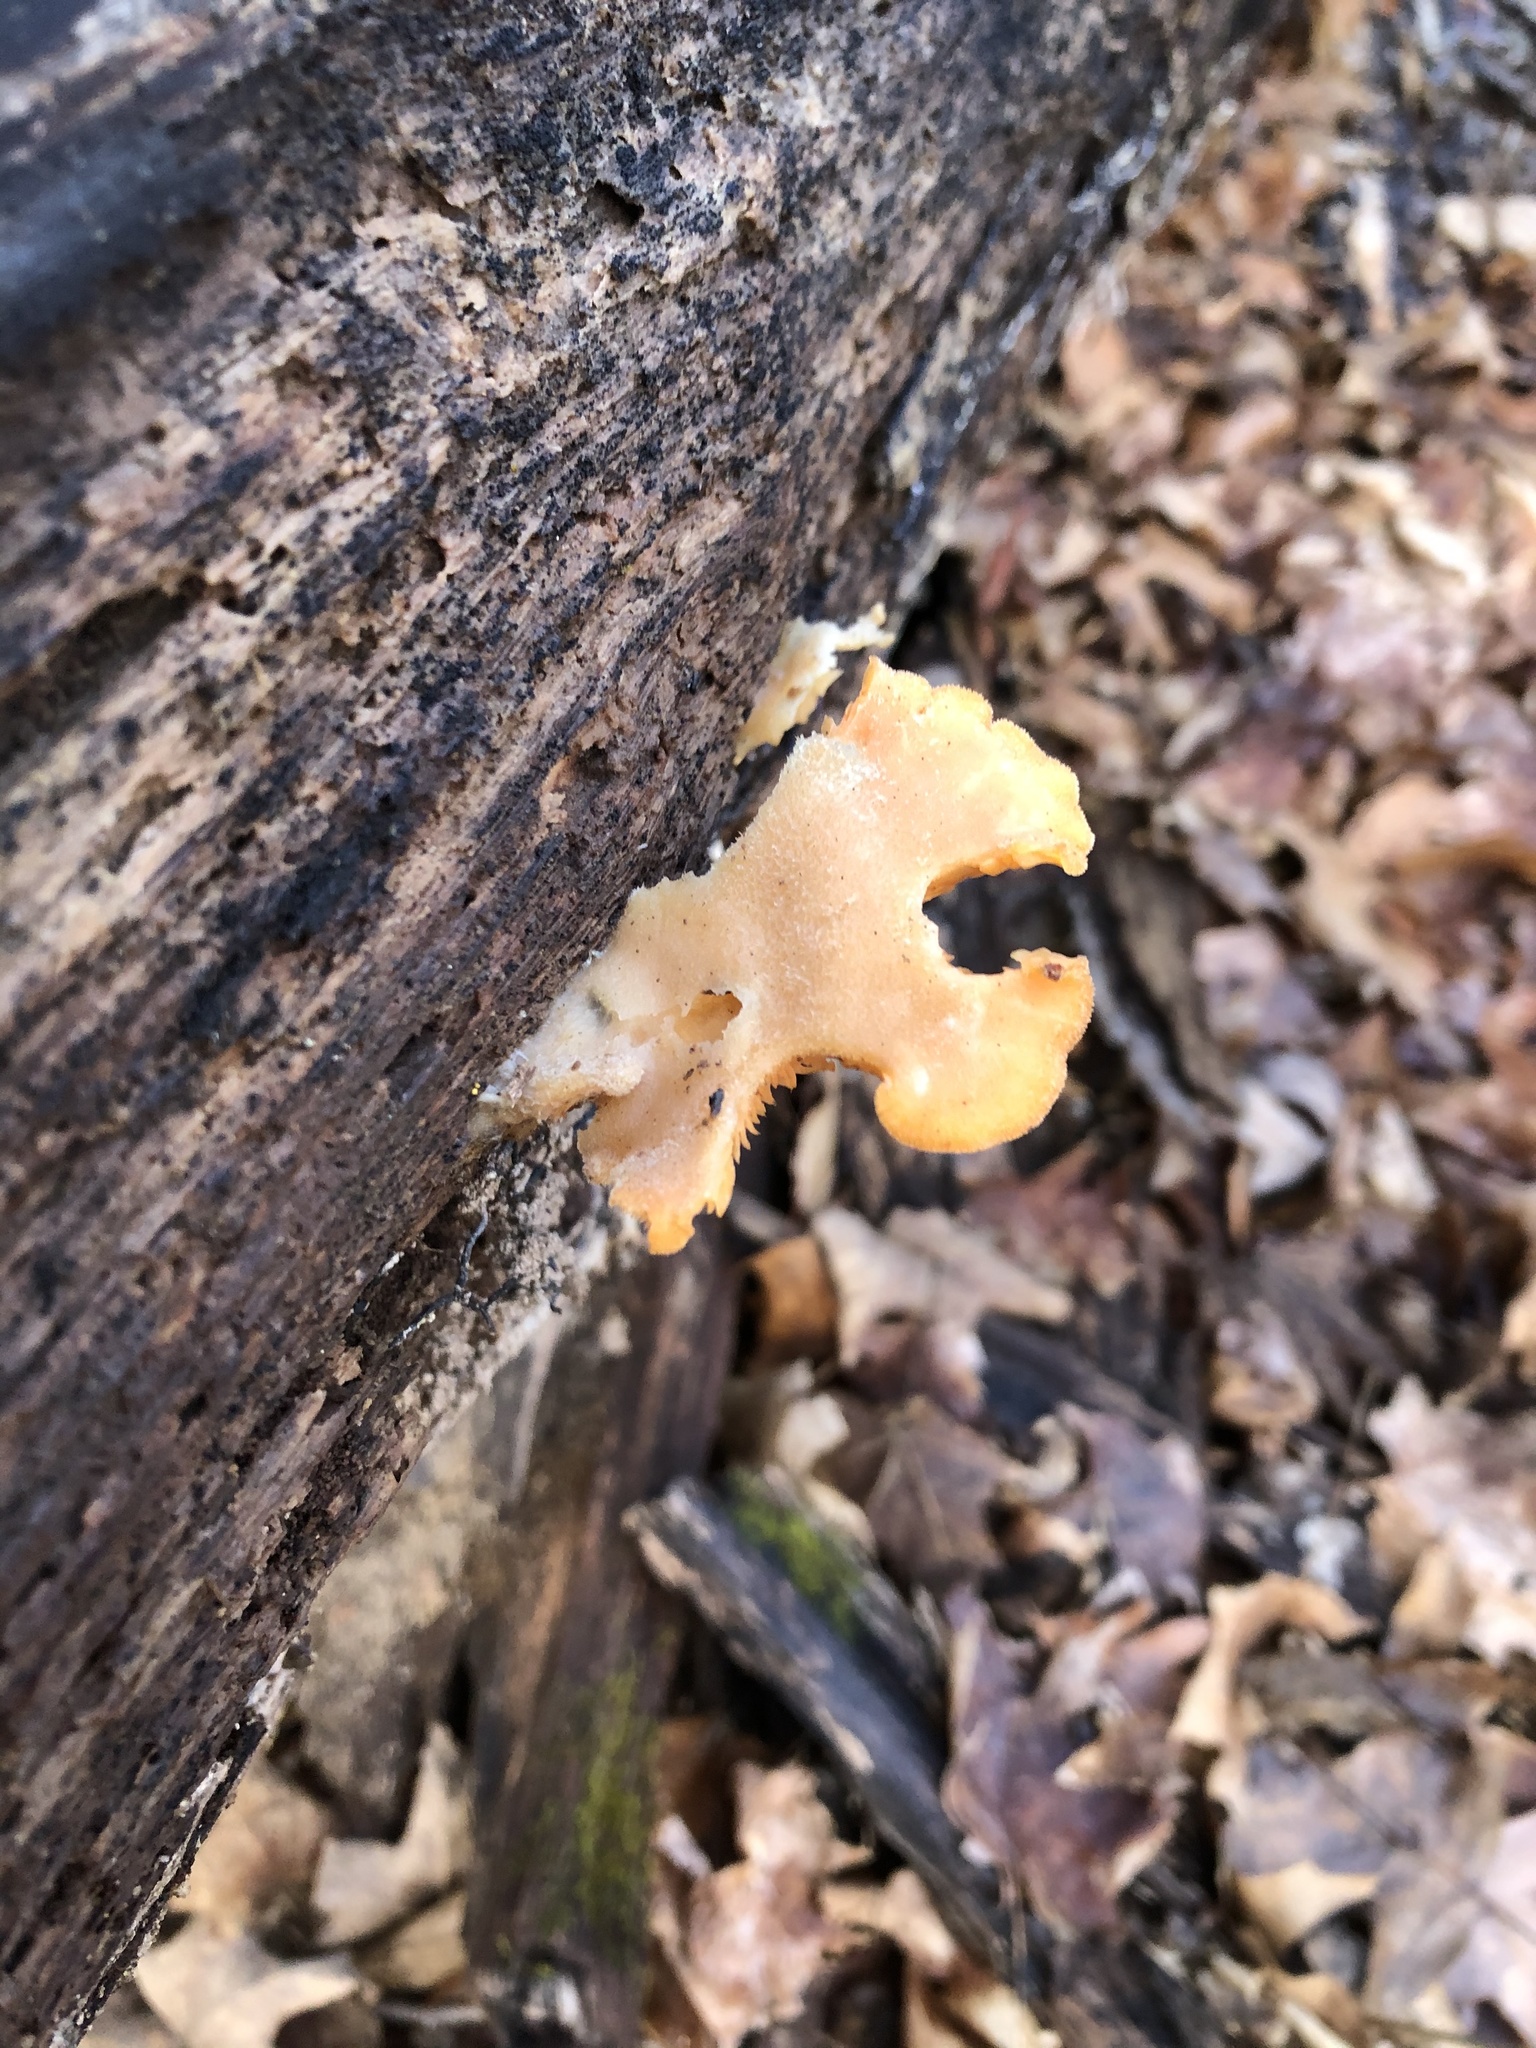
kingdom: Fungi
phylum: Basidiomycota
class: Agaricomycetes
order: Agaricales
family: Phyllotopsidaceae
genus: Phyllotopsis
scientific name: Phyllotopsis nidulans
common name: Orange mock oyster
